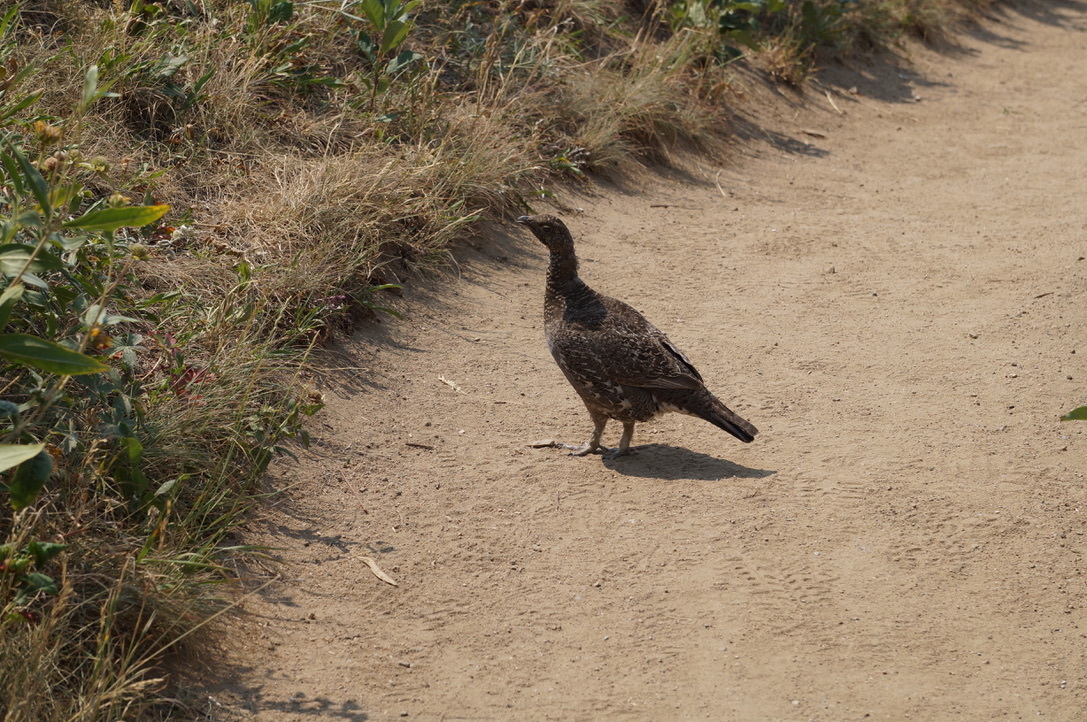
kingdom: Animalia
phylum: Chordata
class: Aves
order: Galliformes
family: Phasianidae
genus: Dendragapus
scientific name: Dendragapus obscurus
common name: Dusky grouse
